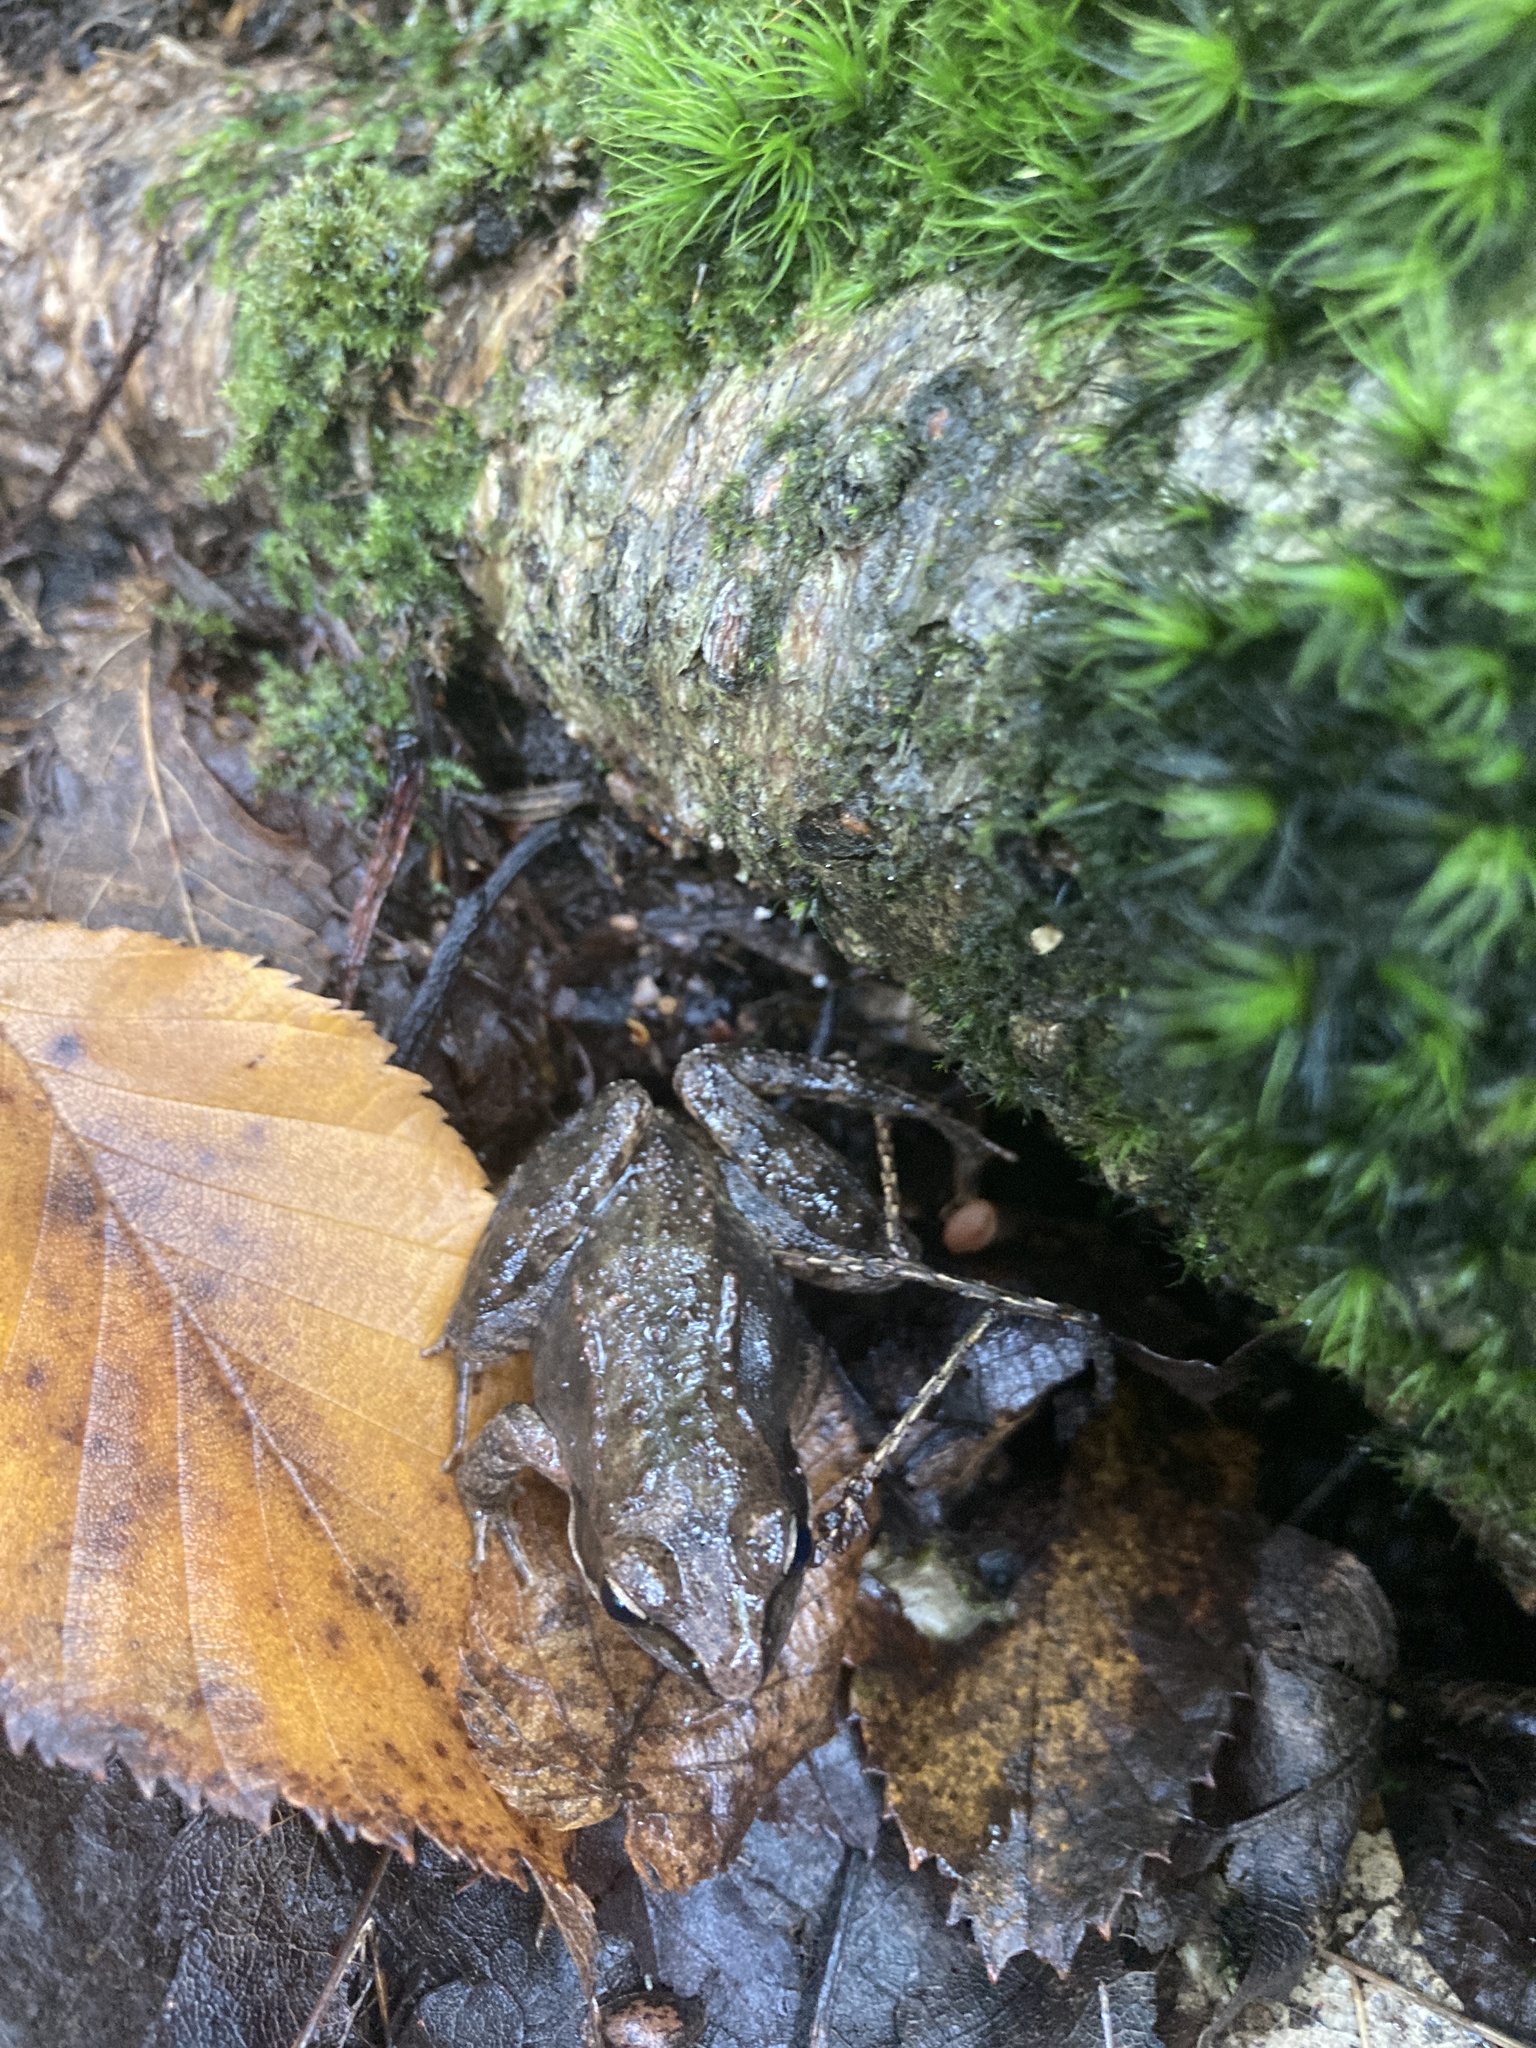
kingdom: Animalia
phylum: Chordata
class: Amphibia
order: Anura
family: Ranidae
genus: Lithobates
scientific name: Lithobates sylvaticus
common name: Wood frog
